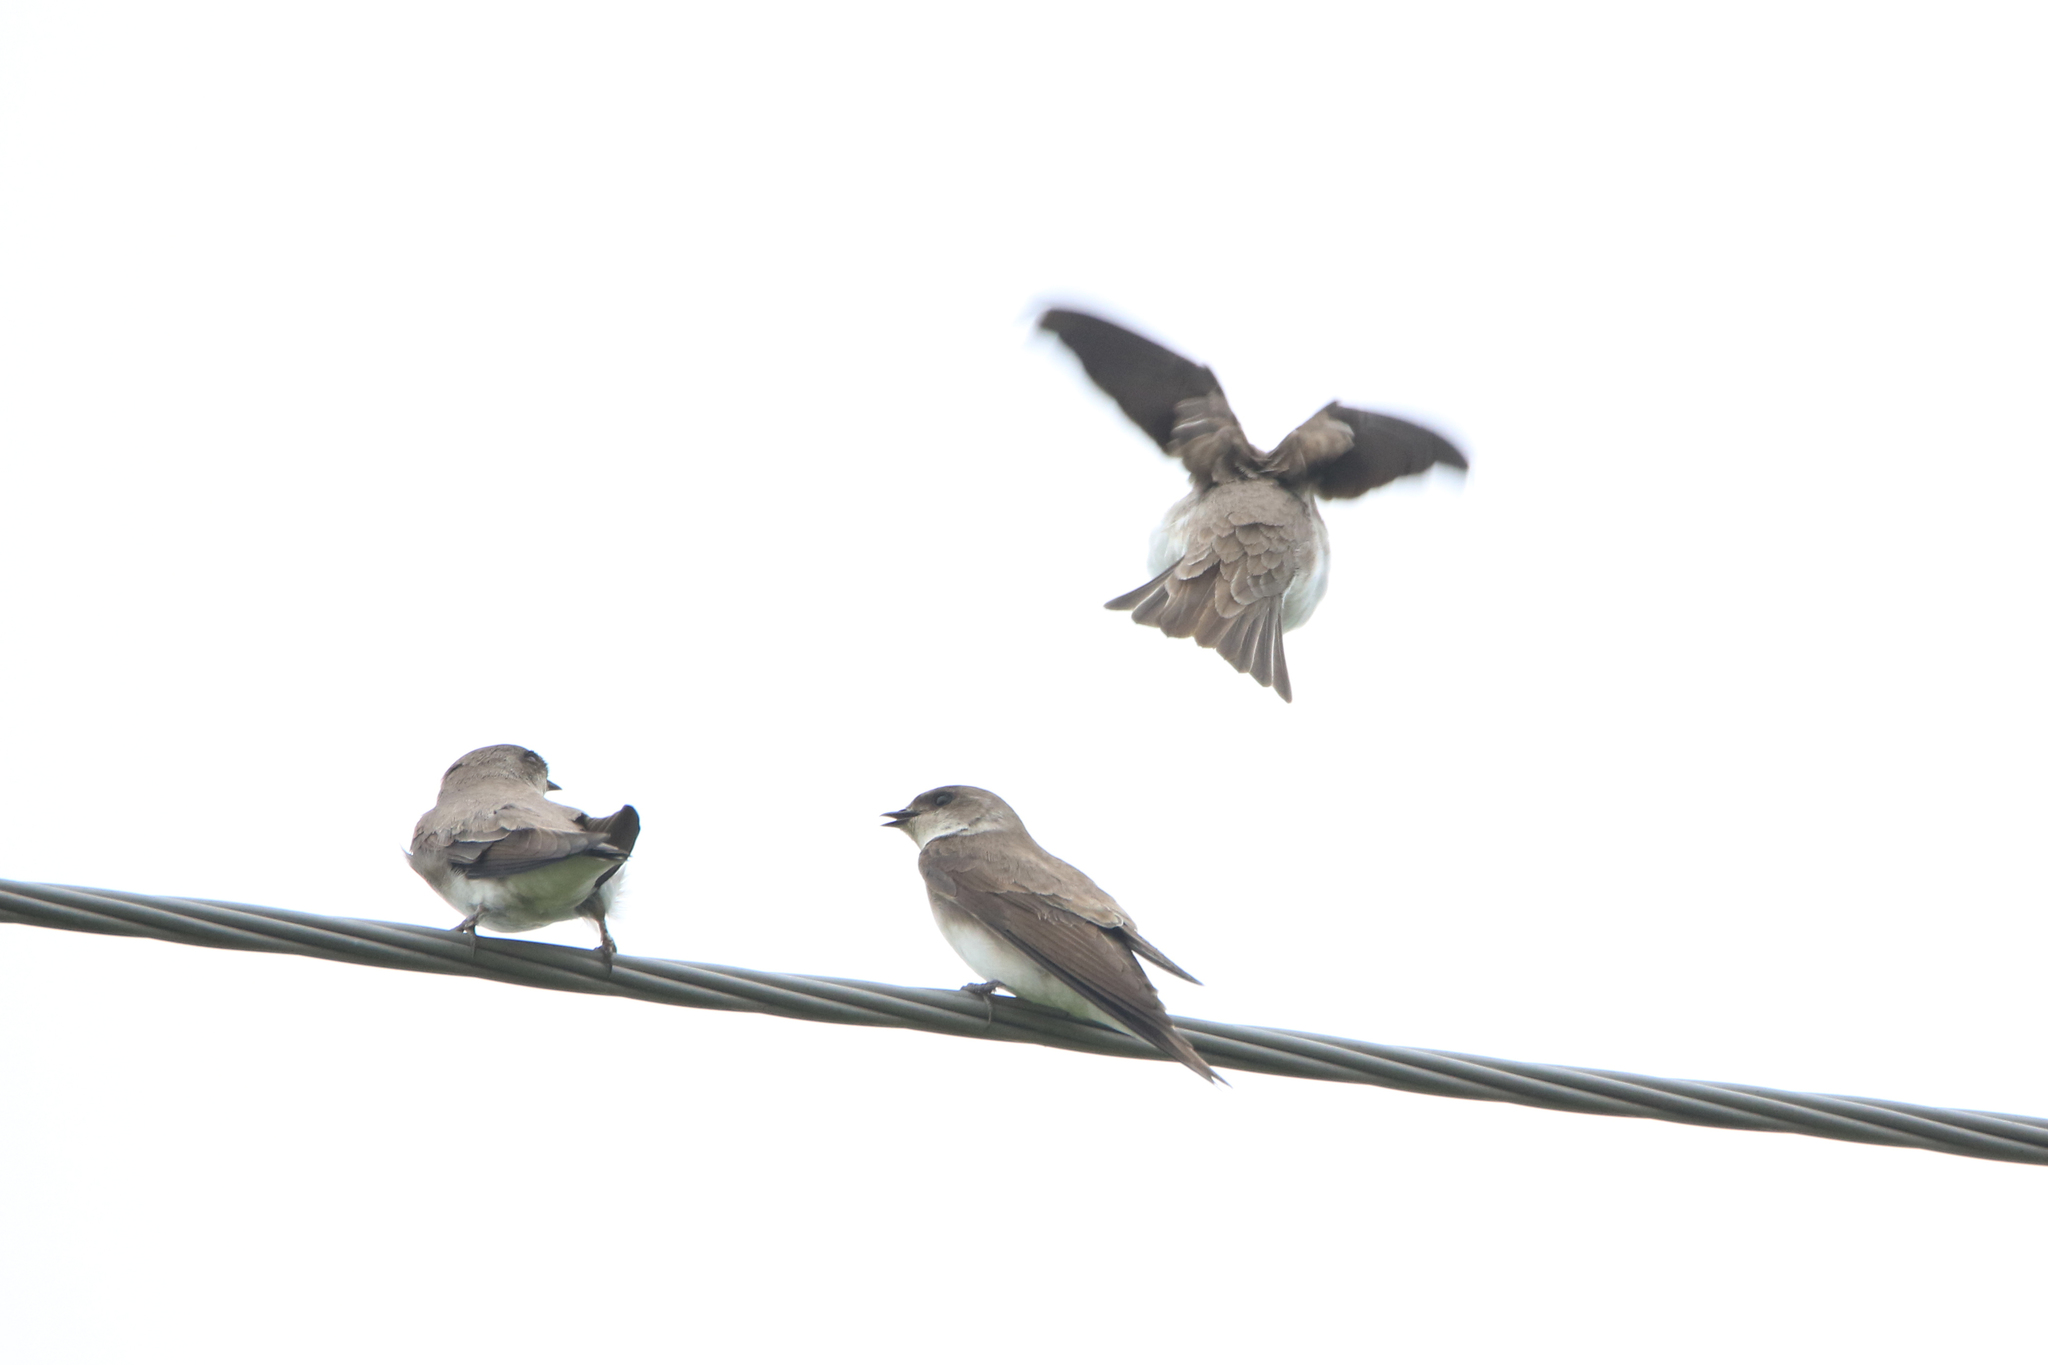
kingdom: Animalia
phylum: Chordata
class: Aves
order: Passeriformes
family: Hirundinidae
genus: Riparia
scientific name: Riparia riparia
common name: Sand martin
